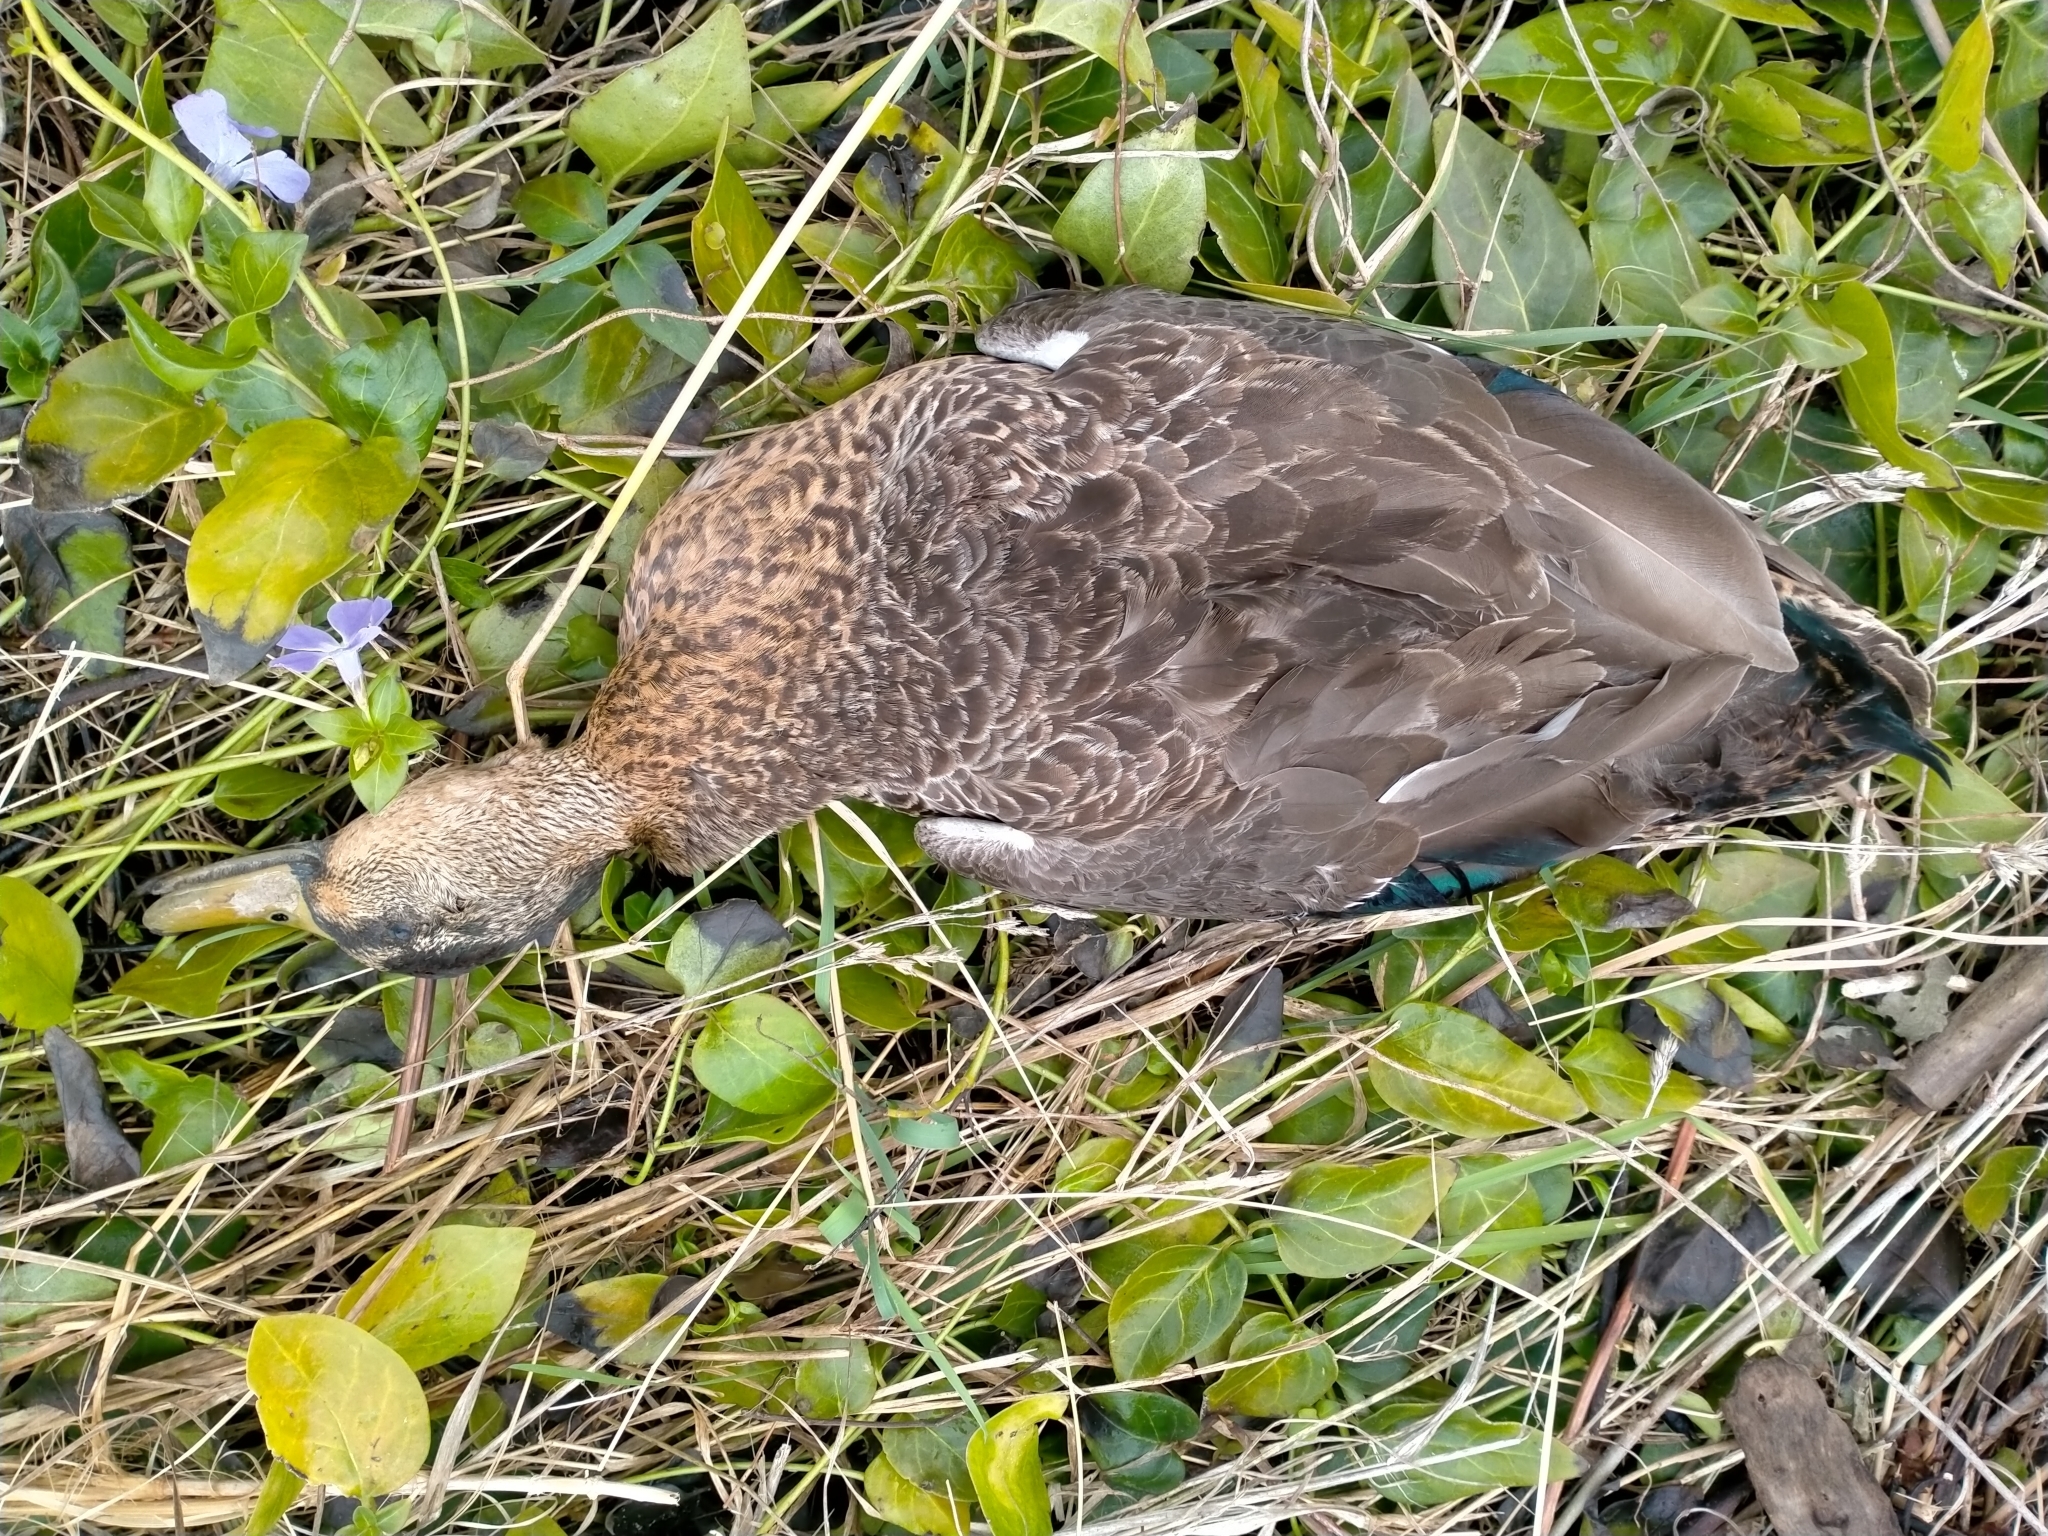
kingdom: Animalia
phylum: Chordata
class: Aves
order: Anseriformes
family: Anatidae
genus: Anas
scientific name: Anas
